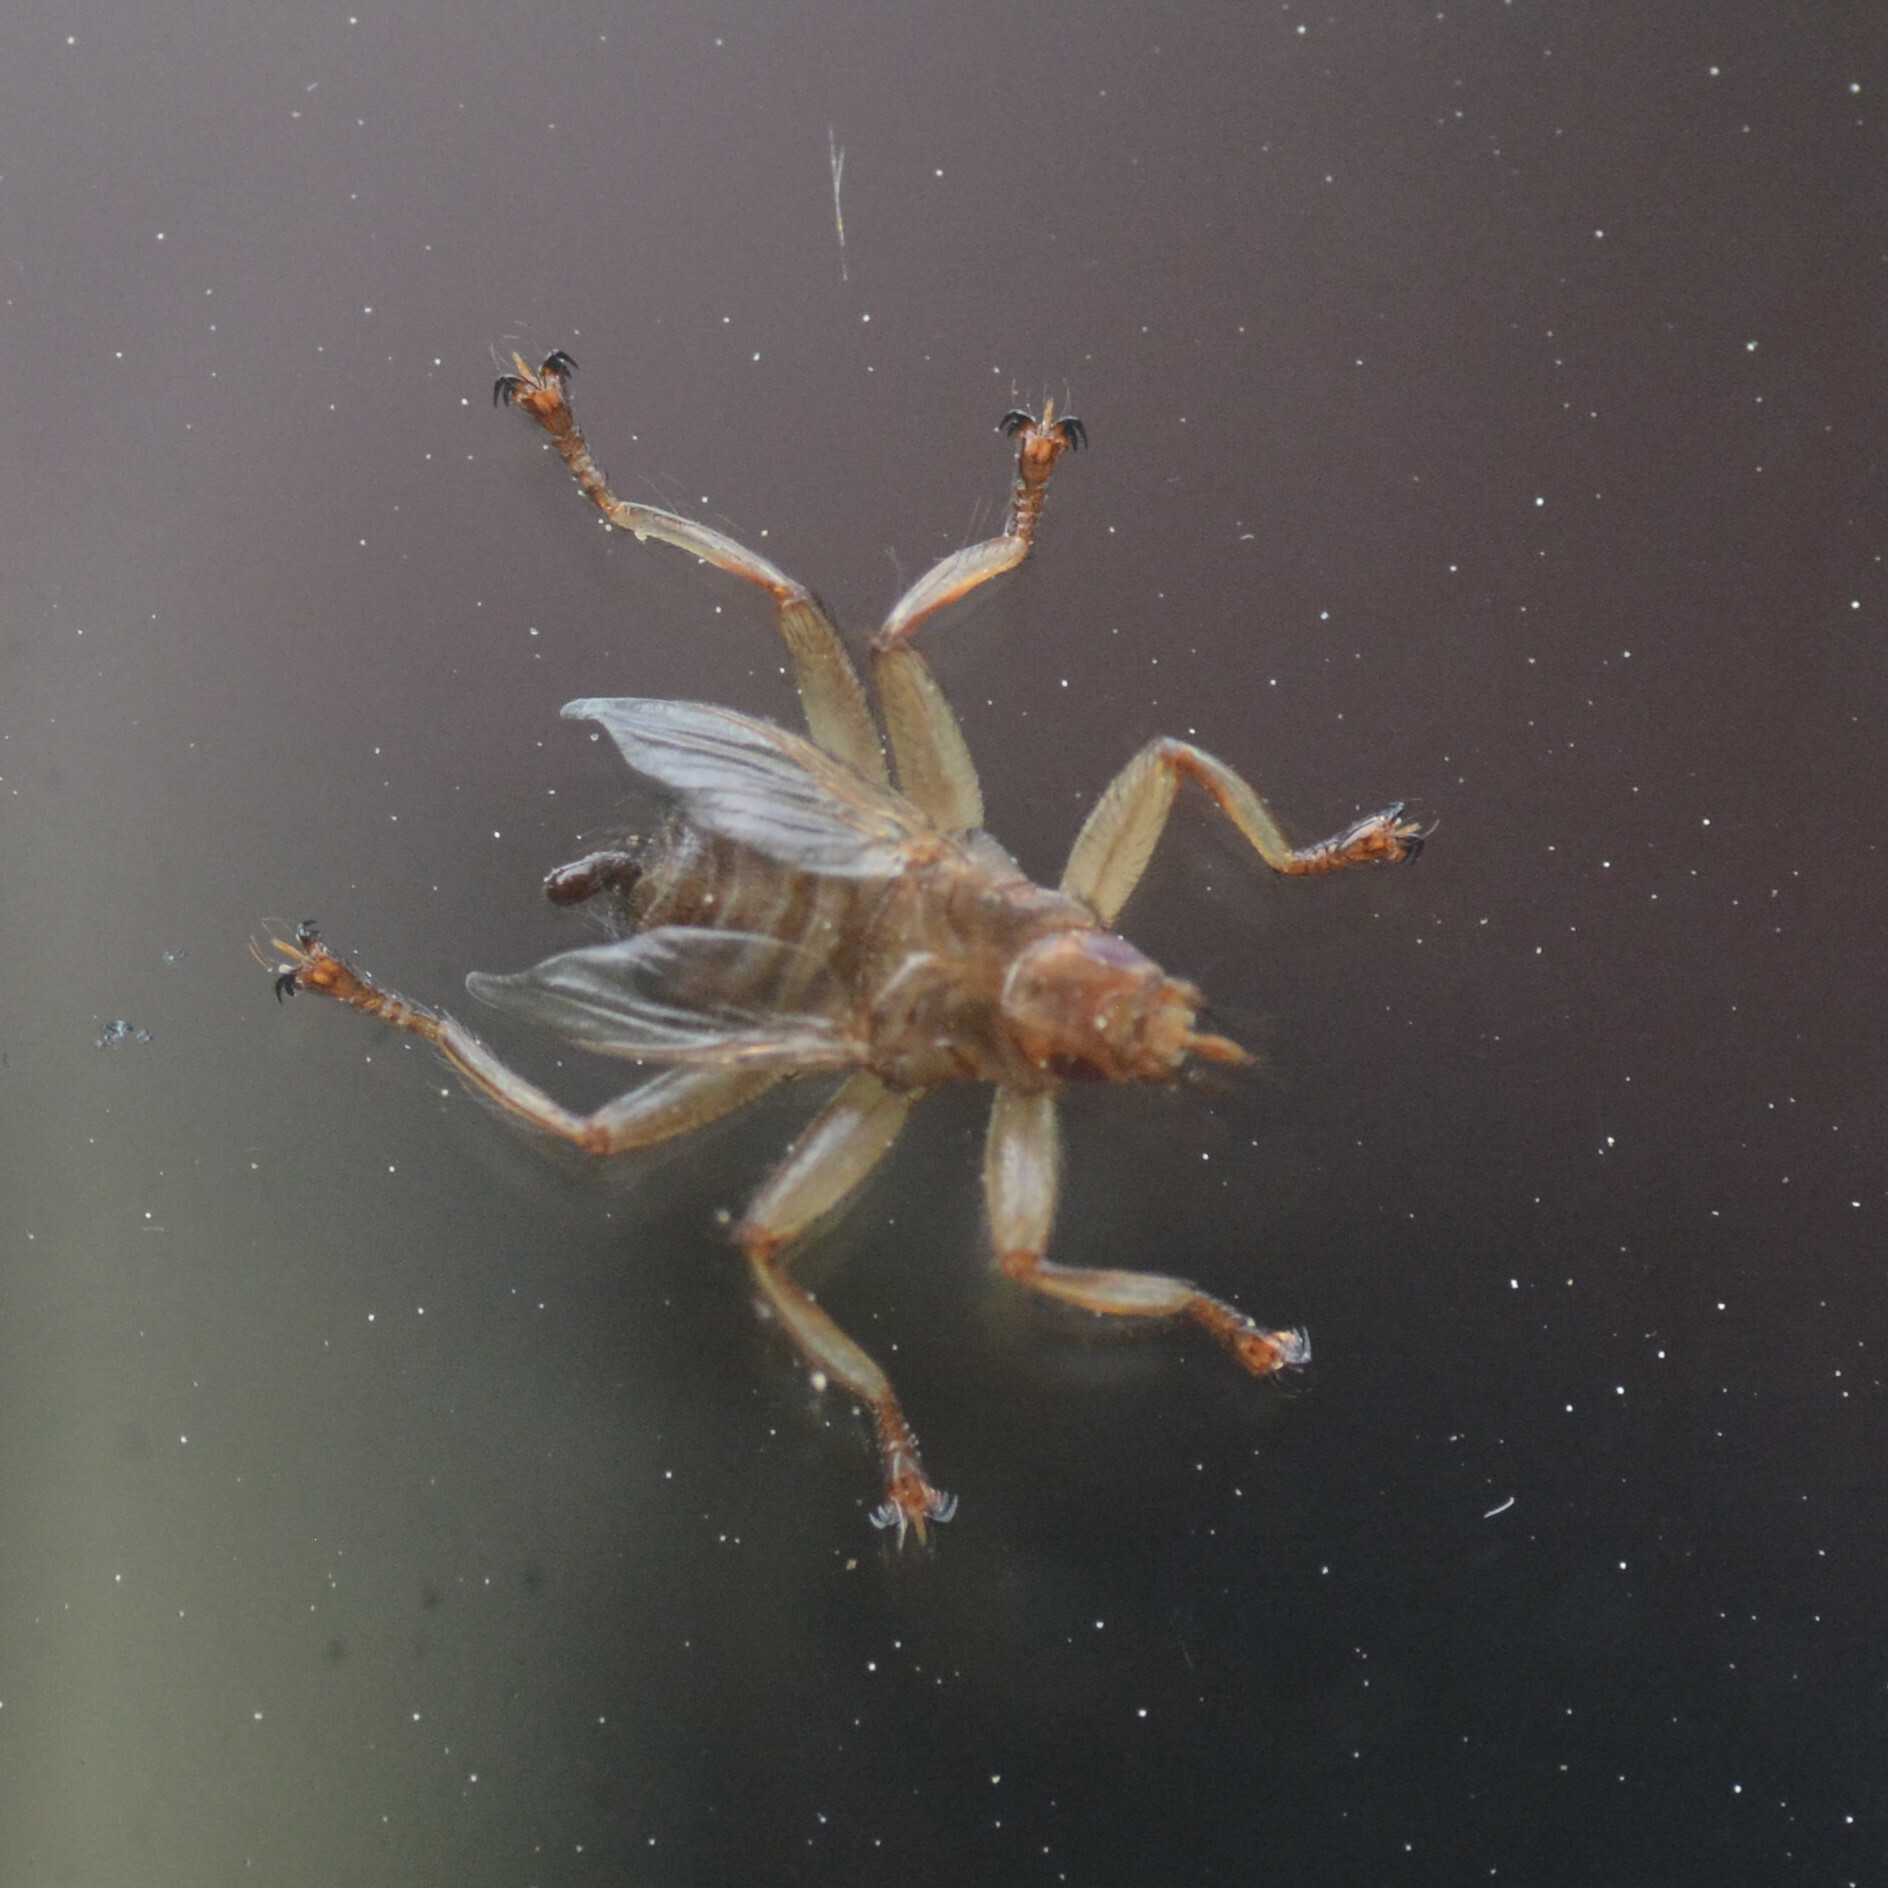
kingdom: Animalia
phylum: Arthropoda
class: Insecta
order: Diptera
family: Hippoboscidae
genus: Crataerina
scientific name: Crataerina pallida
